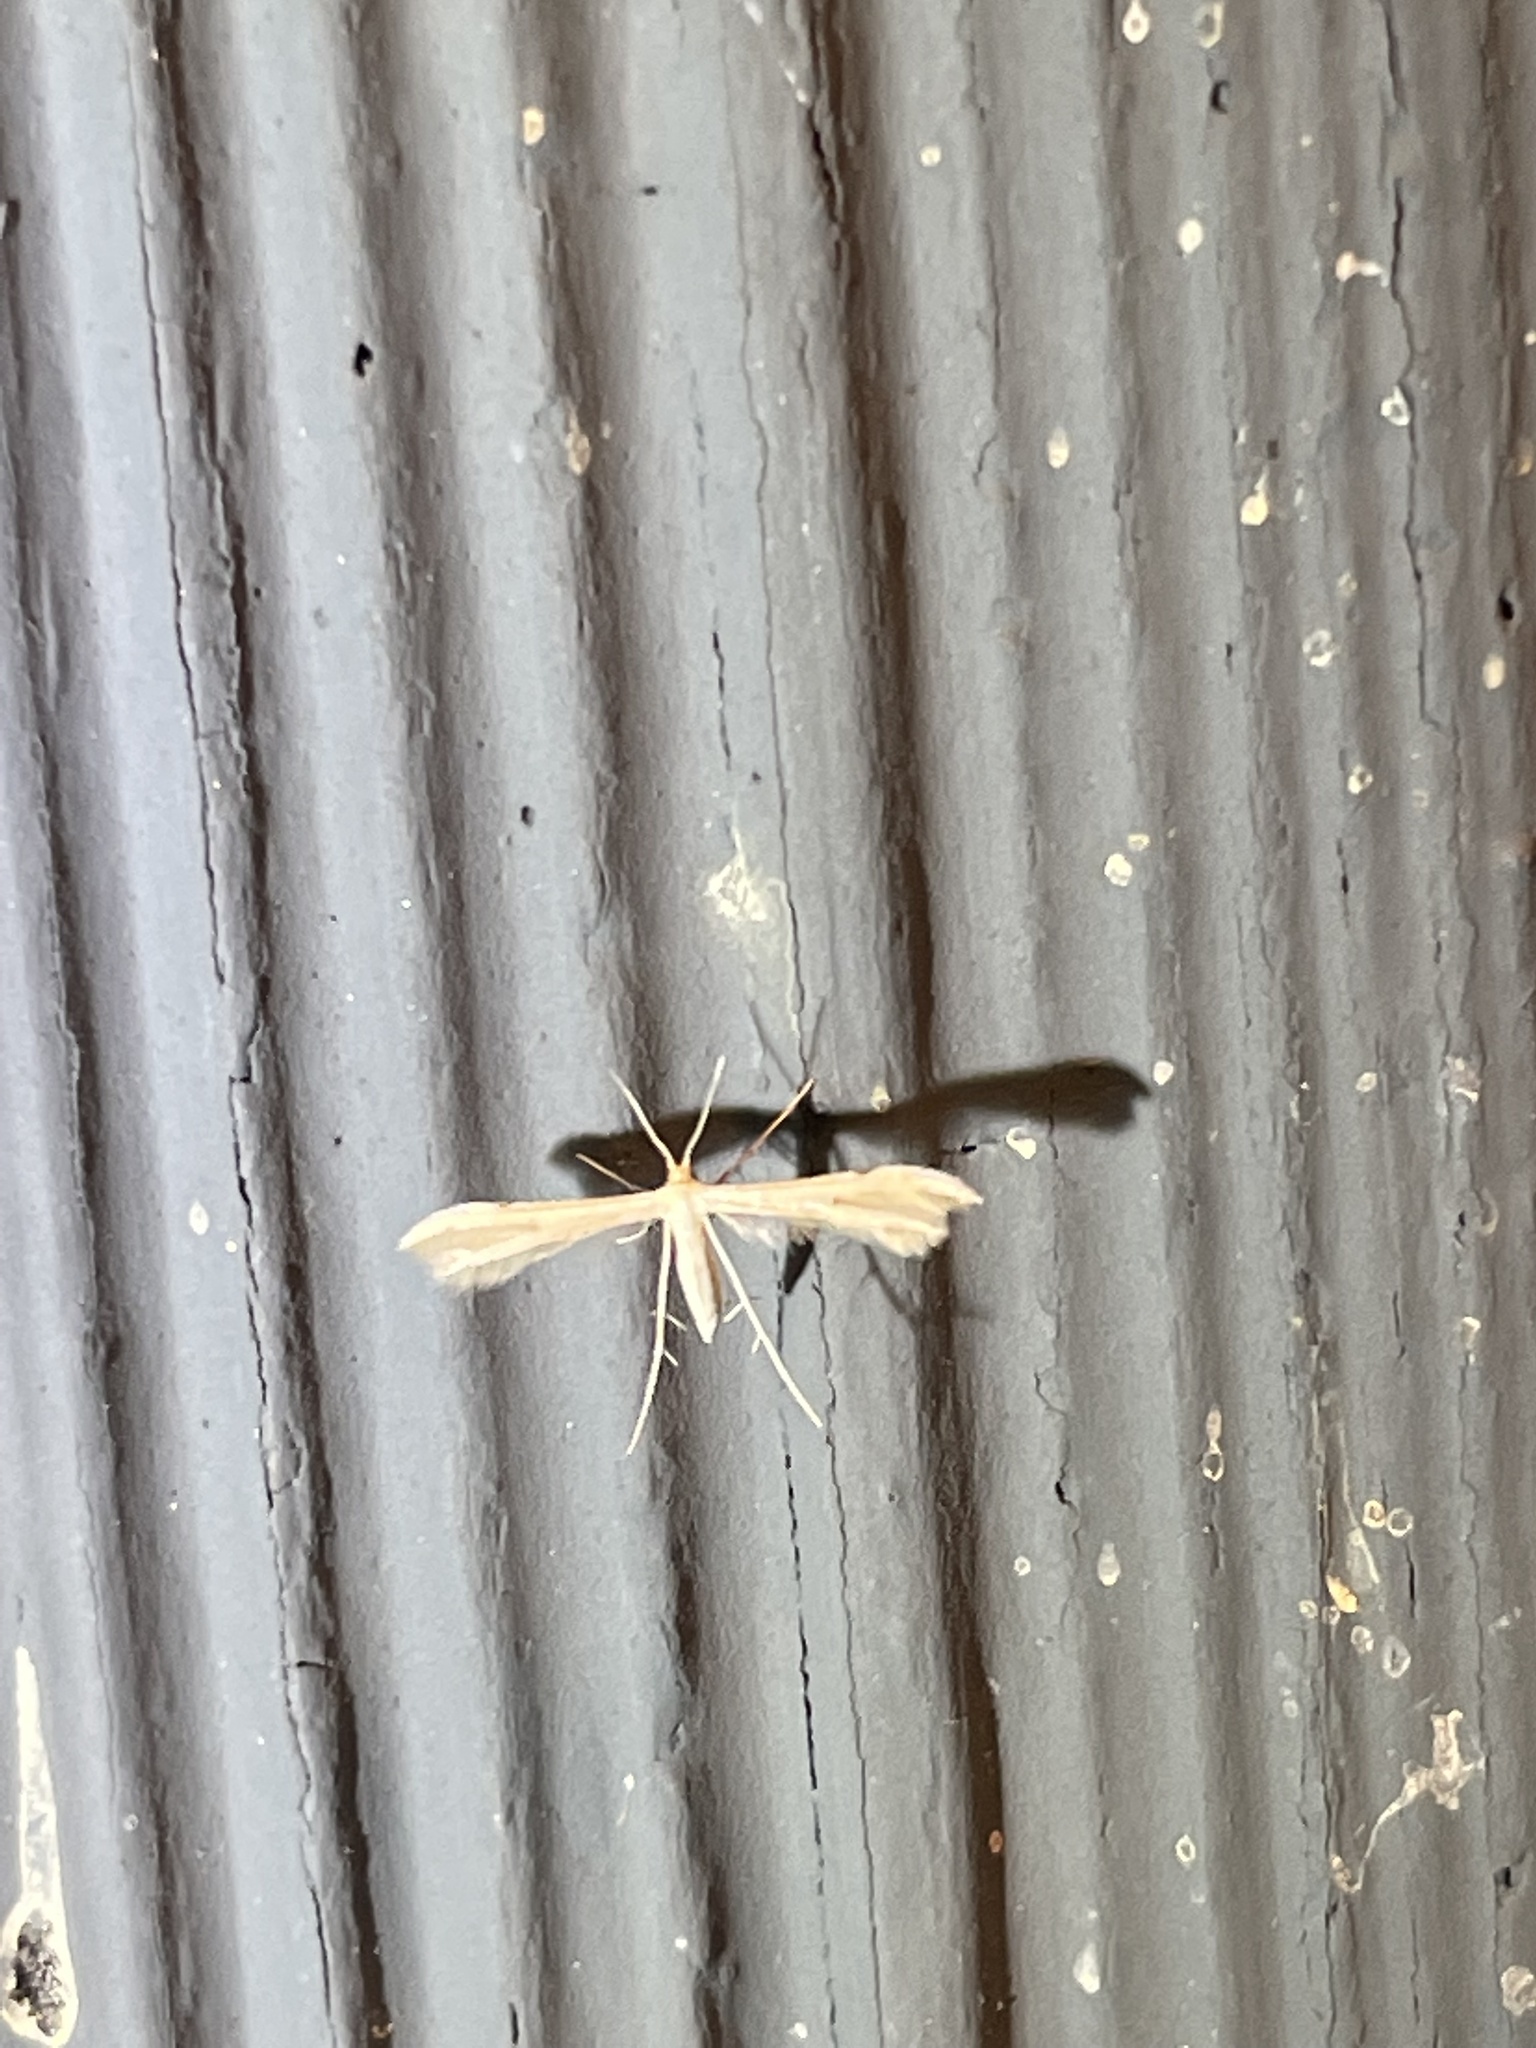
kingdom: Animalia
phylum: Arthropoda
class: Insecta
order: Lepidoptera
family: Pterophoridae
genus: Adaina
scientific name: Adaina
